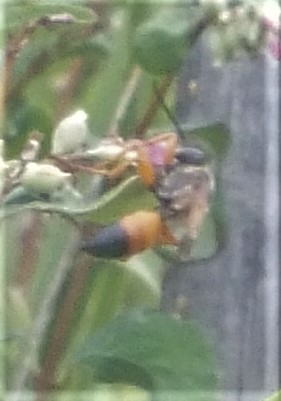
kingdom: Animalia
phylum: Arthropoda
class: Insecta
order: Hymenoptera
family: Sphecidae
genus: Sphex
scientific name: Sphex ichneumoneus
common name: Great golden digger wasp
